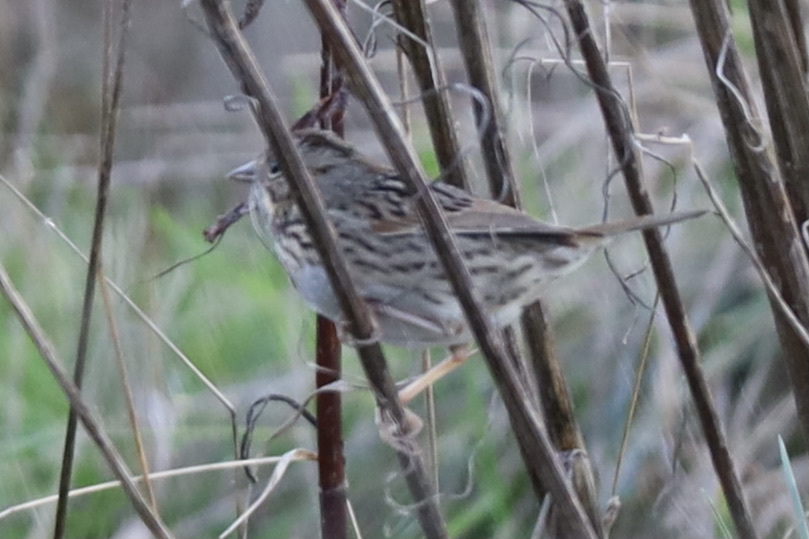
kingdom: Animalia
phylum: Chordata
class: Aves
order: Passeriformes
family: Passerellidae
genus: Melospiza
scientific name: Melospiza lincolnii
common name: Lincoln's sparrow
